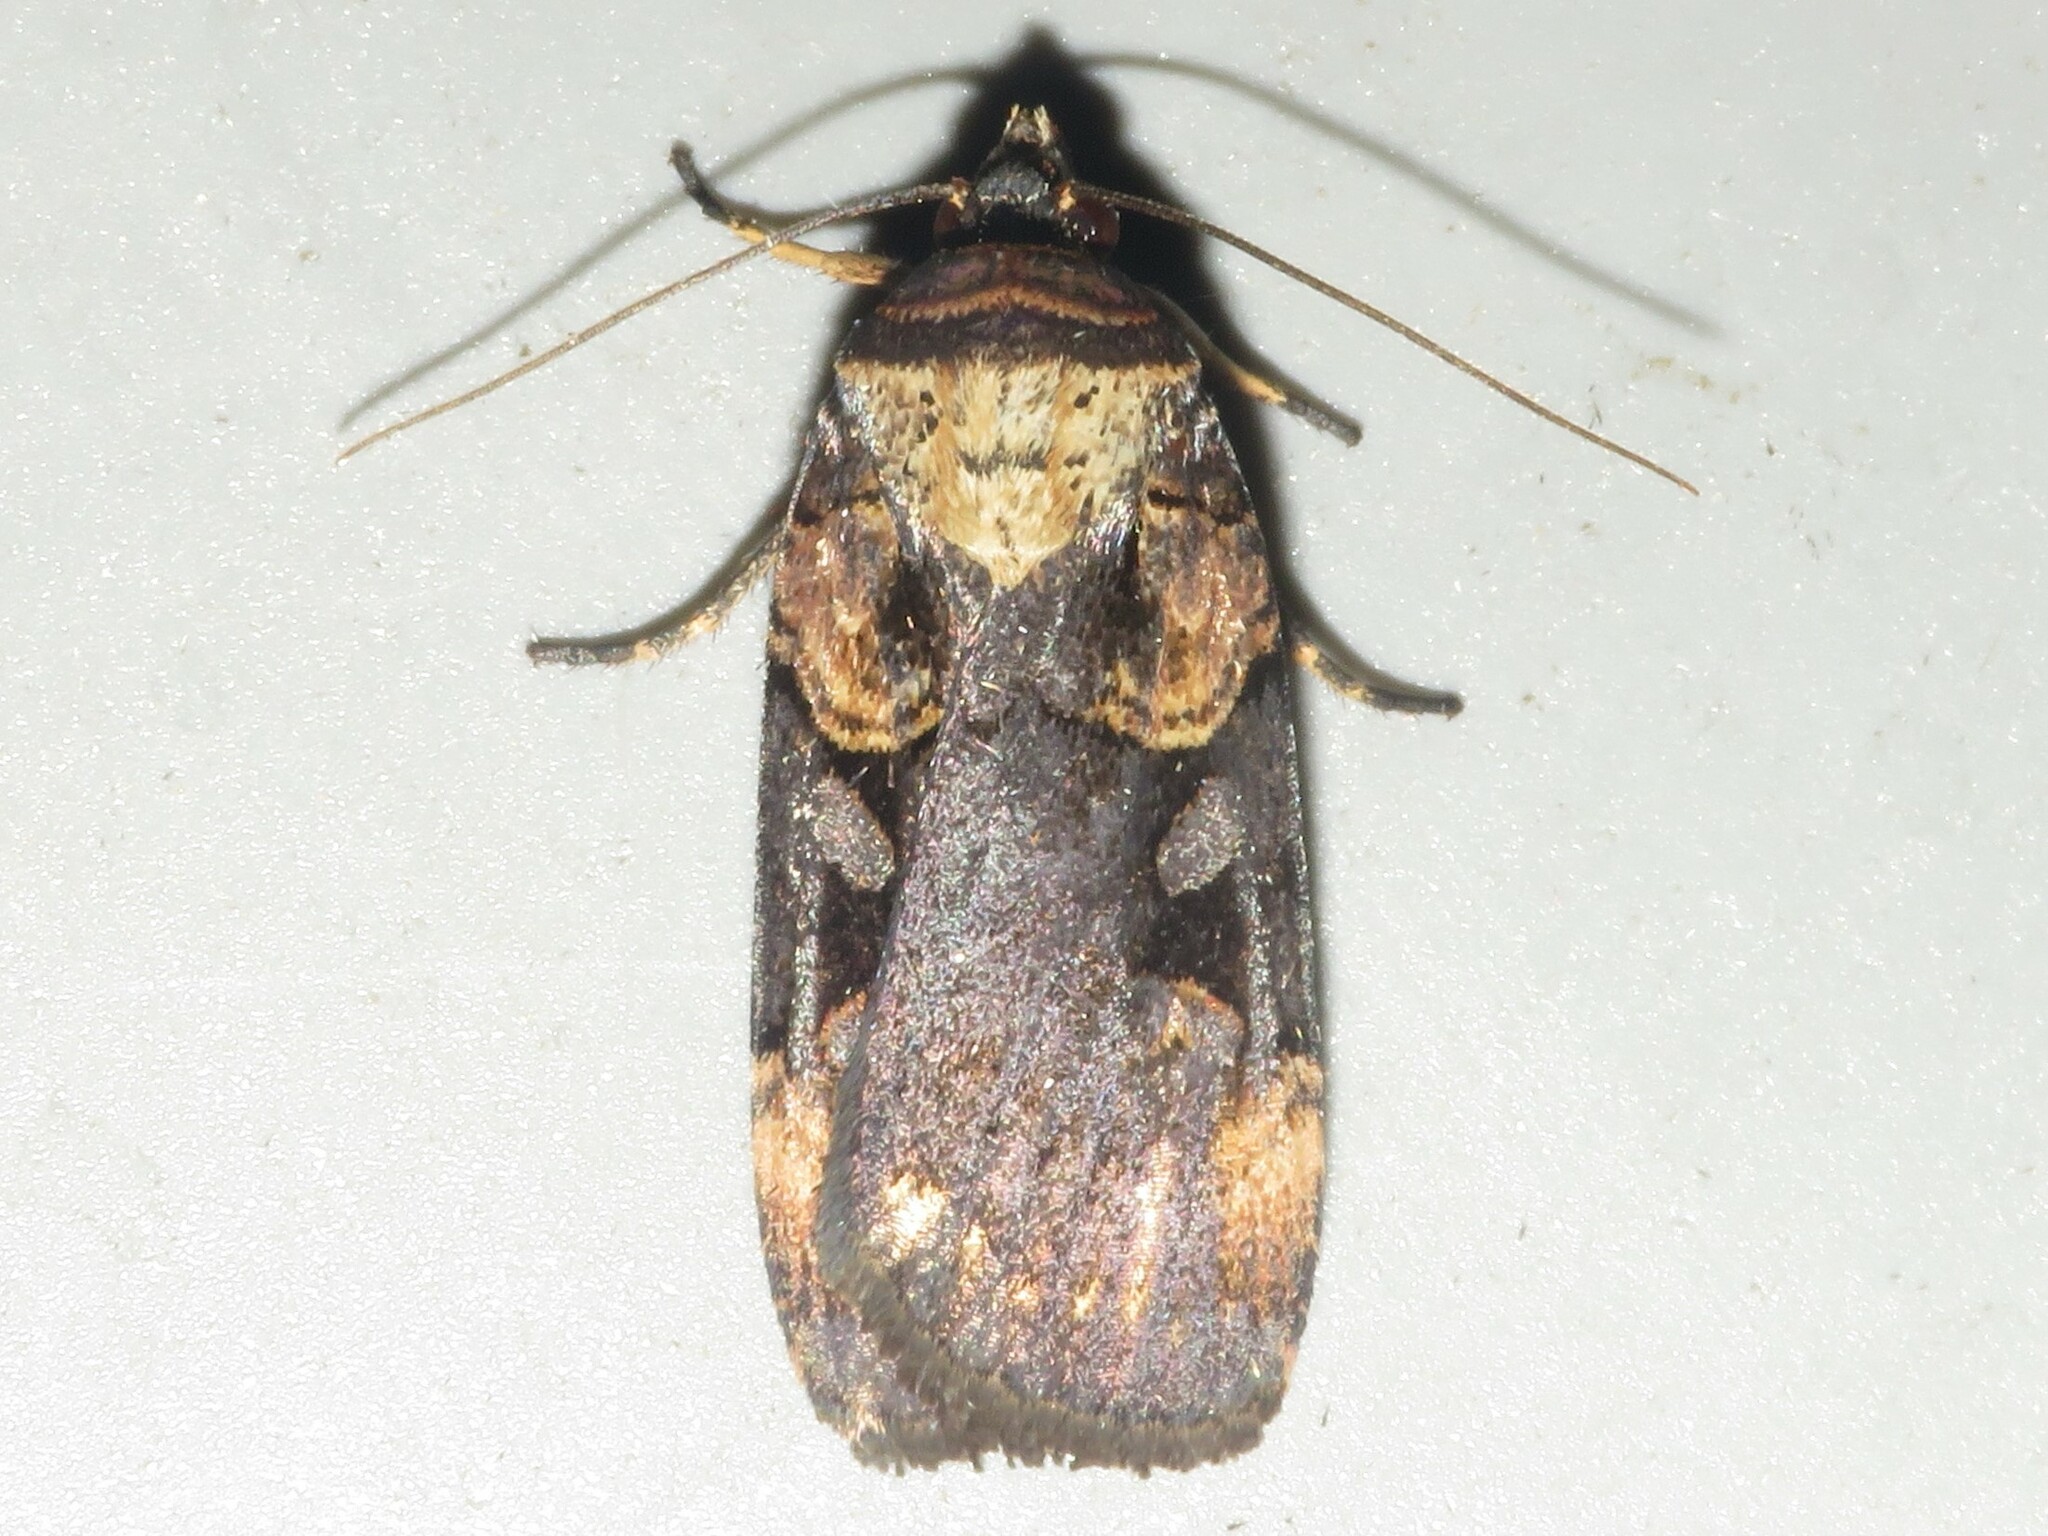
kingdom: Animalia
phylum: Arthropoda
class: Insecta
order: Lepidoptera
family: Noctuidae
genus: Pseudohermonassa
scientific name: Pseudohermonassa bicarnea
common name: Pink spotted dart
